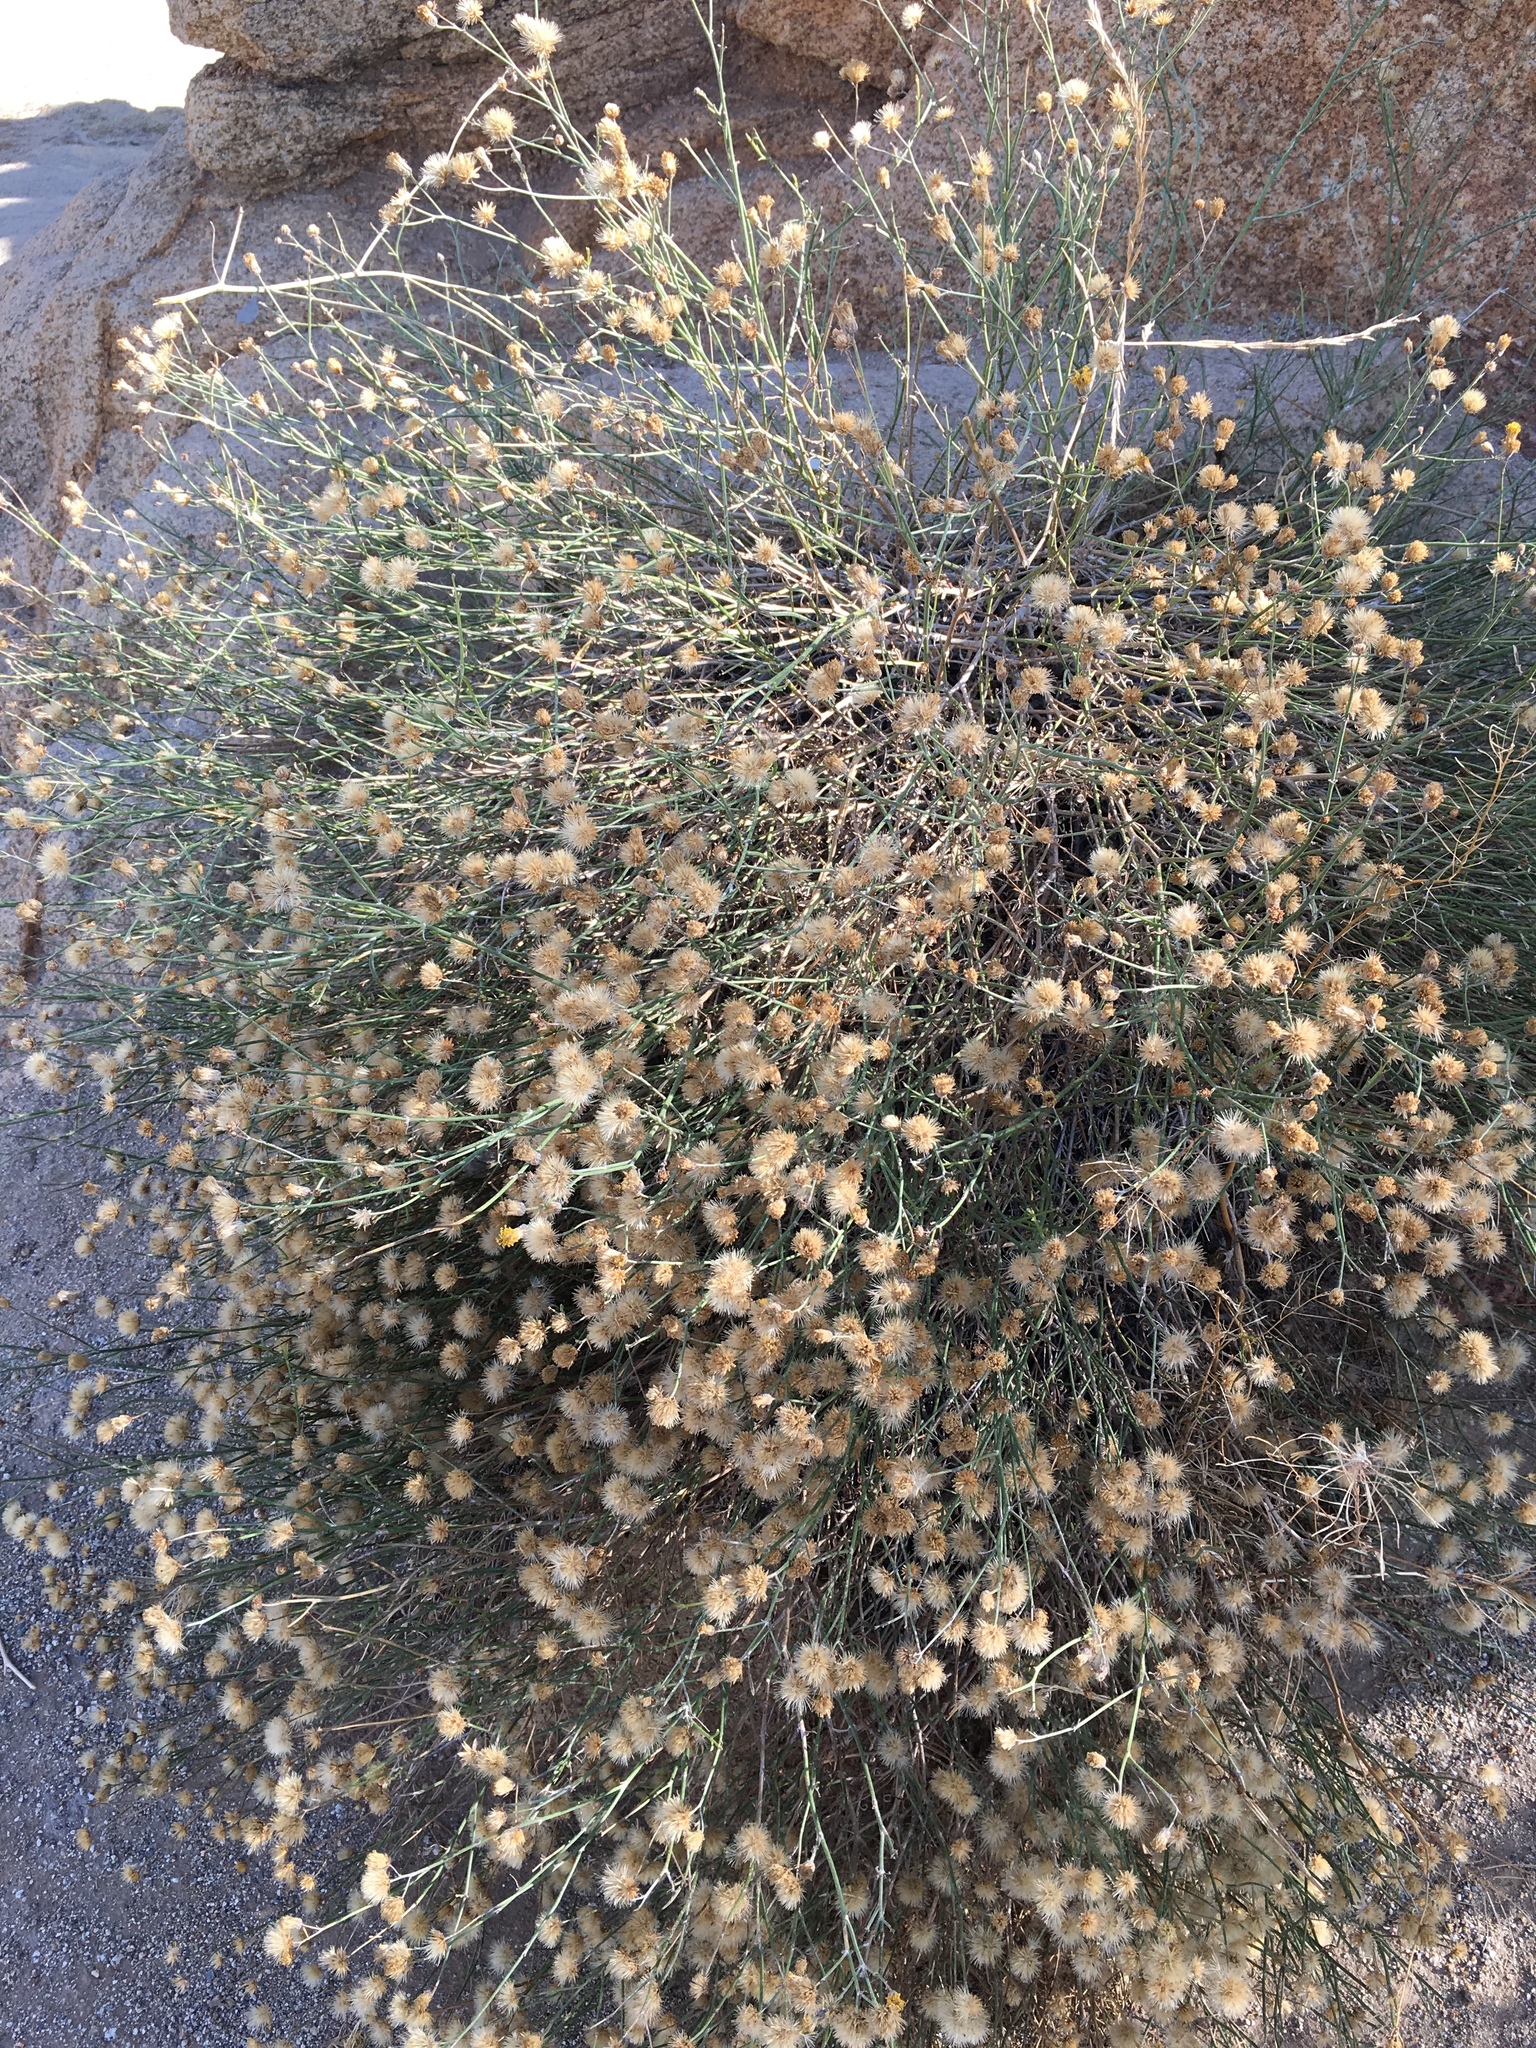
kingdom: Plantae
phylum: Tracheophyta
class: Magnoliopsida
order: Asterales
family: Asteraceae
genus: Bebbia
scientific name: Bebbia juncea
